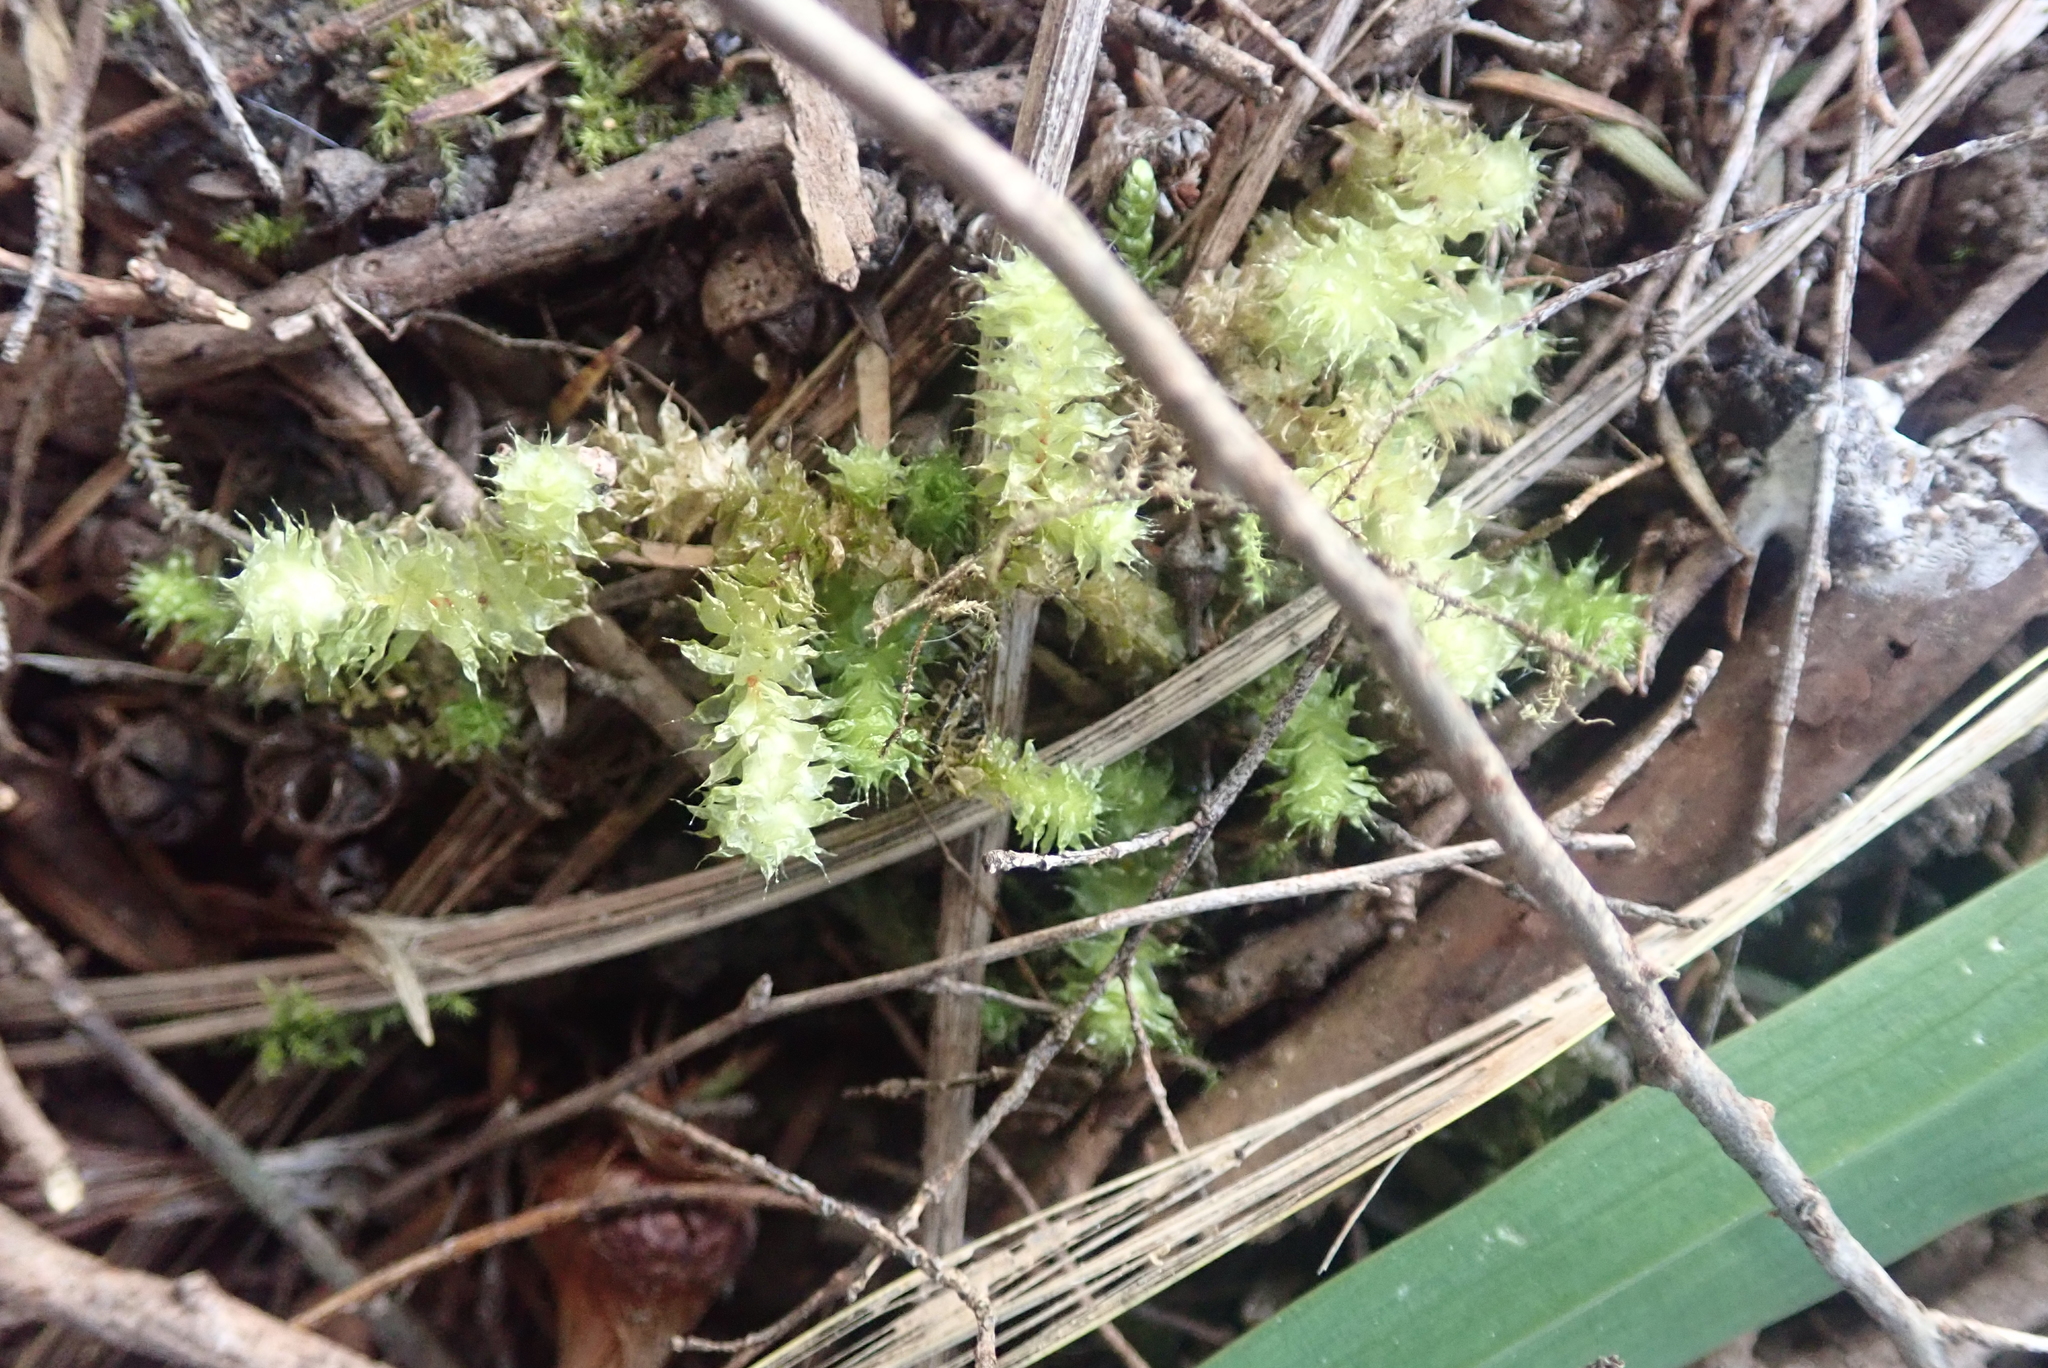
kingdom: Plantae
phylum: Bryophyta
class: Bryopsida
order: Ptychomniales
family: Ptychomniaceae
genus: Ptychomnion
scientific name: Ptychomnion aciculare
